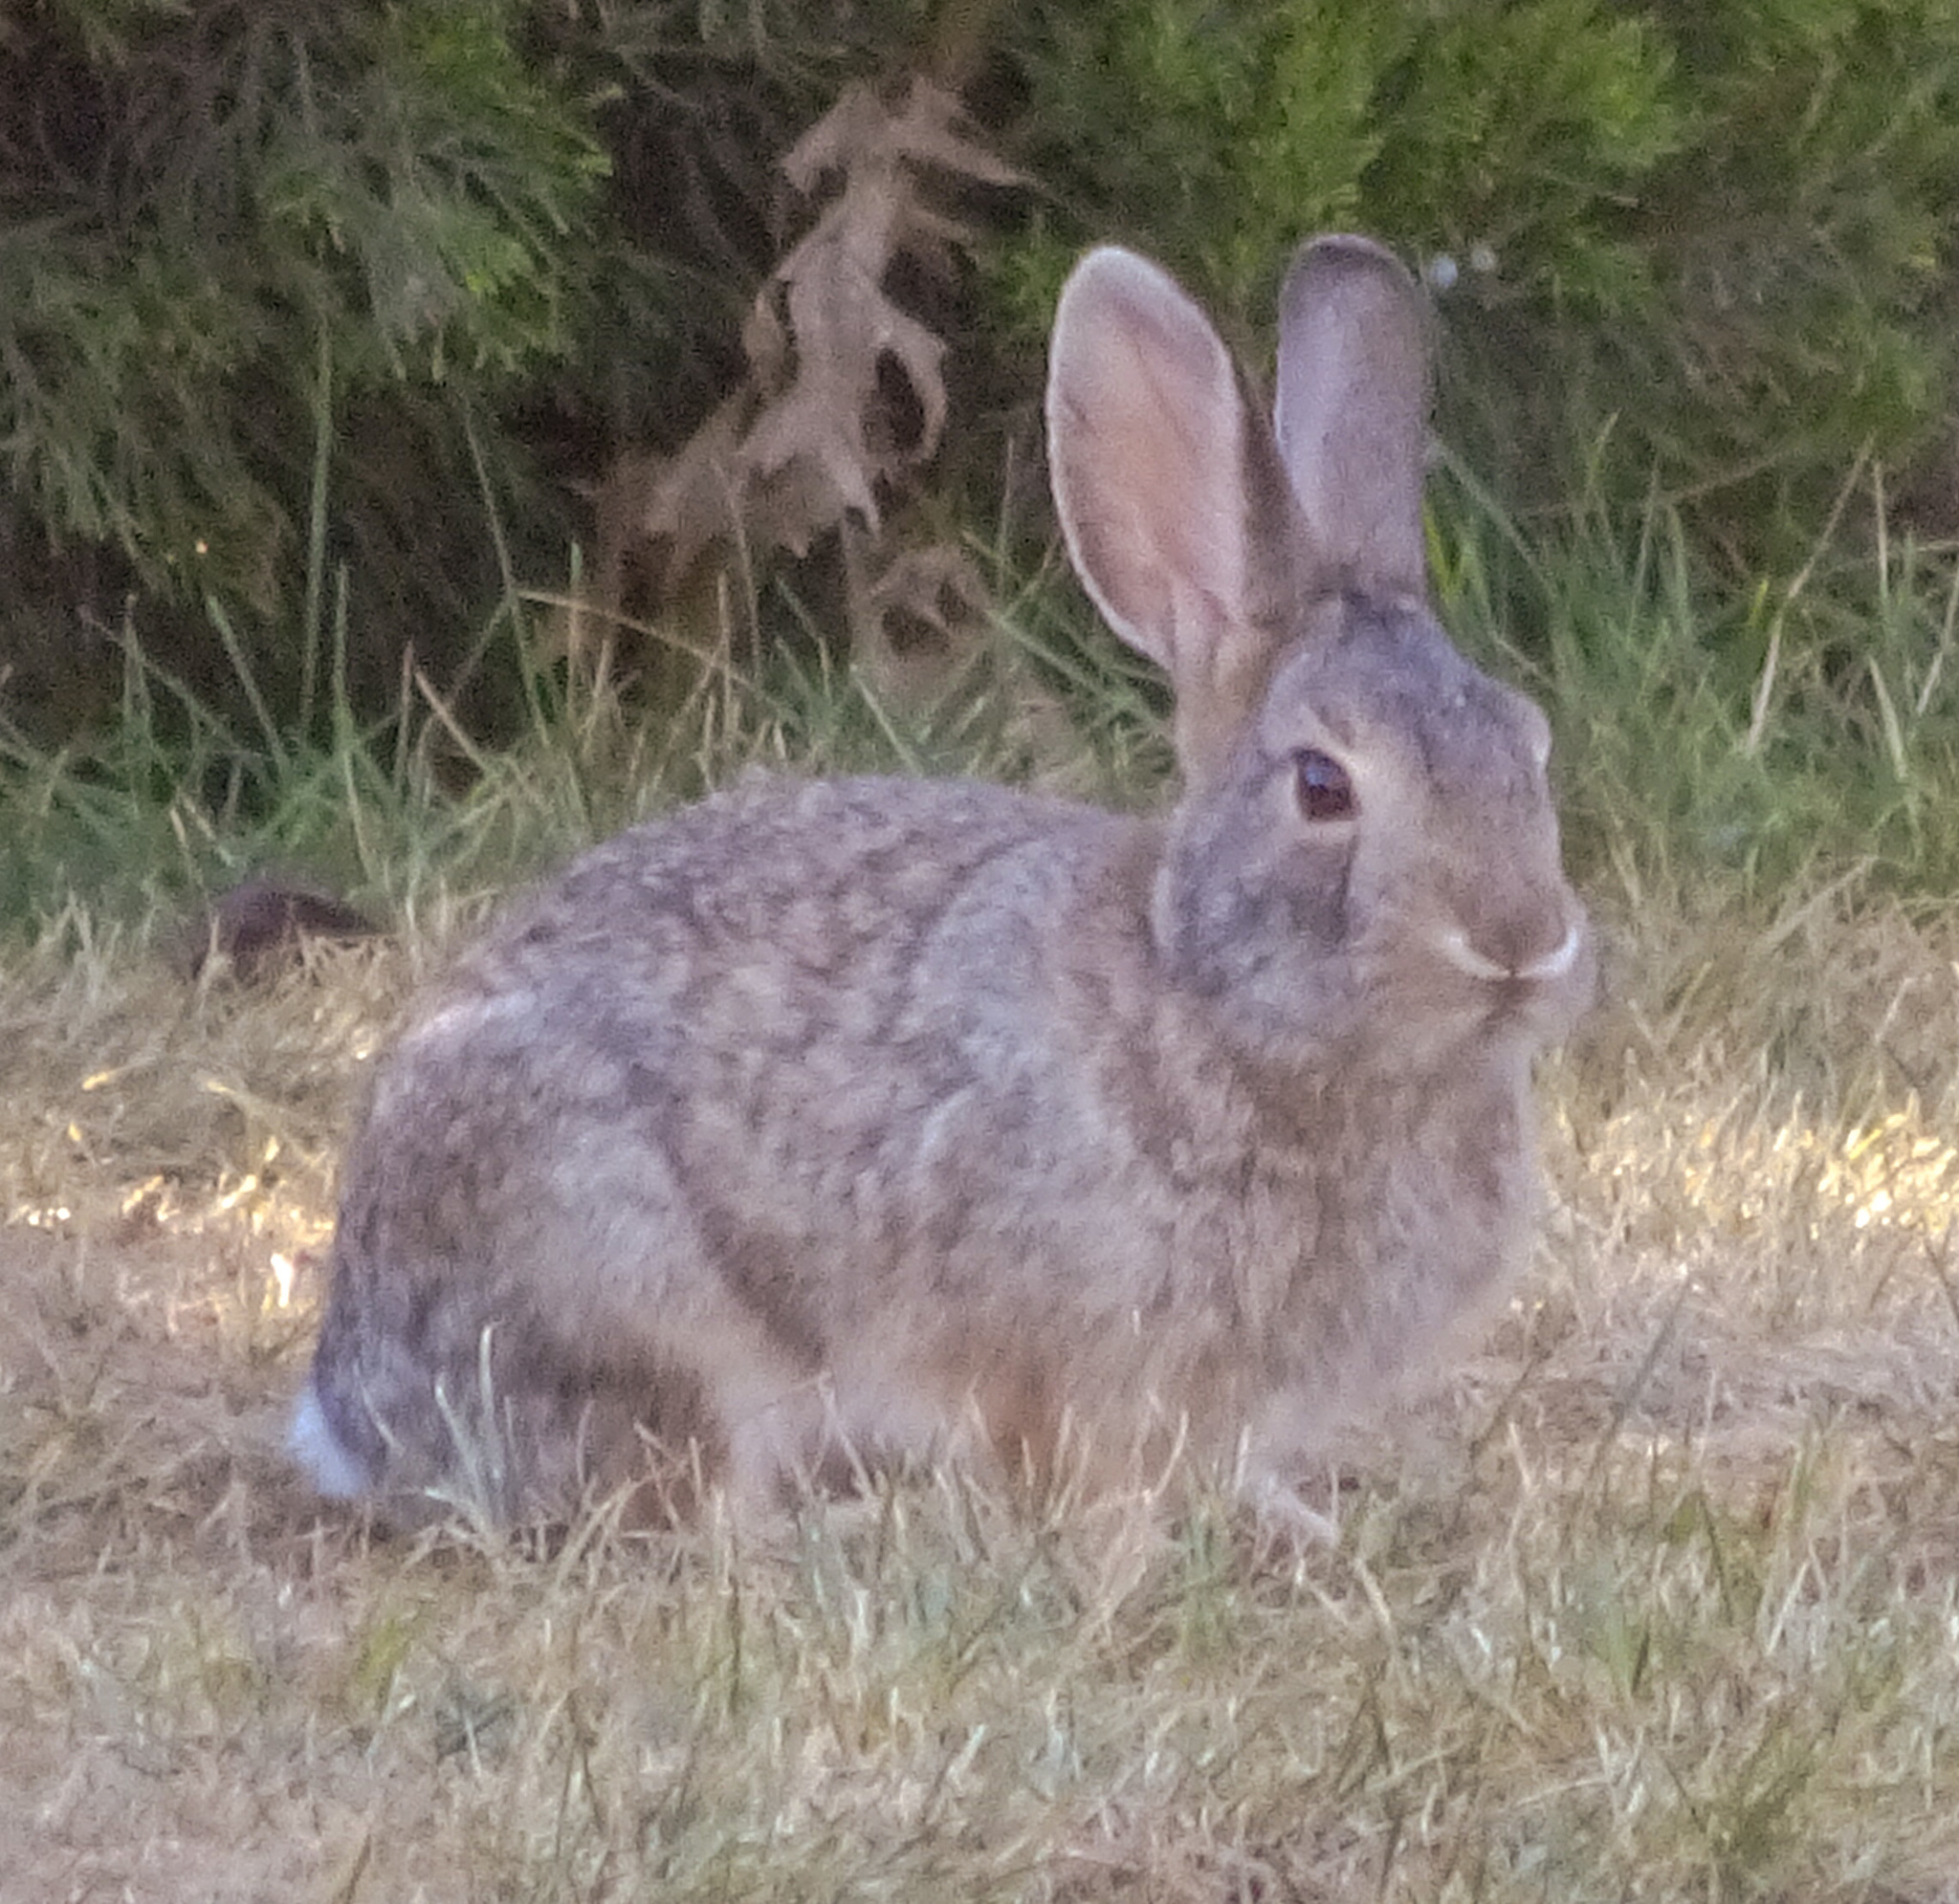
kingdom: Animalia
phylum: Chordata
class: Mammalia
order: Lagomorpha
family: Leporidae
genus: Sylvilagus
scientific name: Sylvilagus audubonii
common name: Desert cottontail
